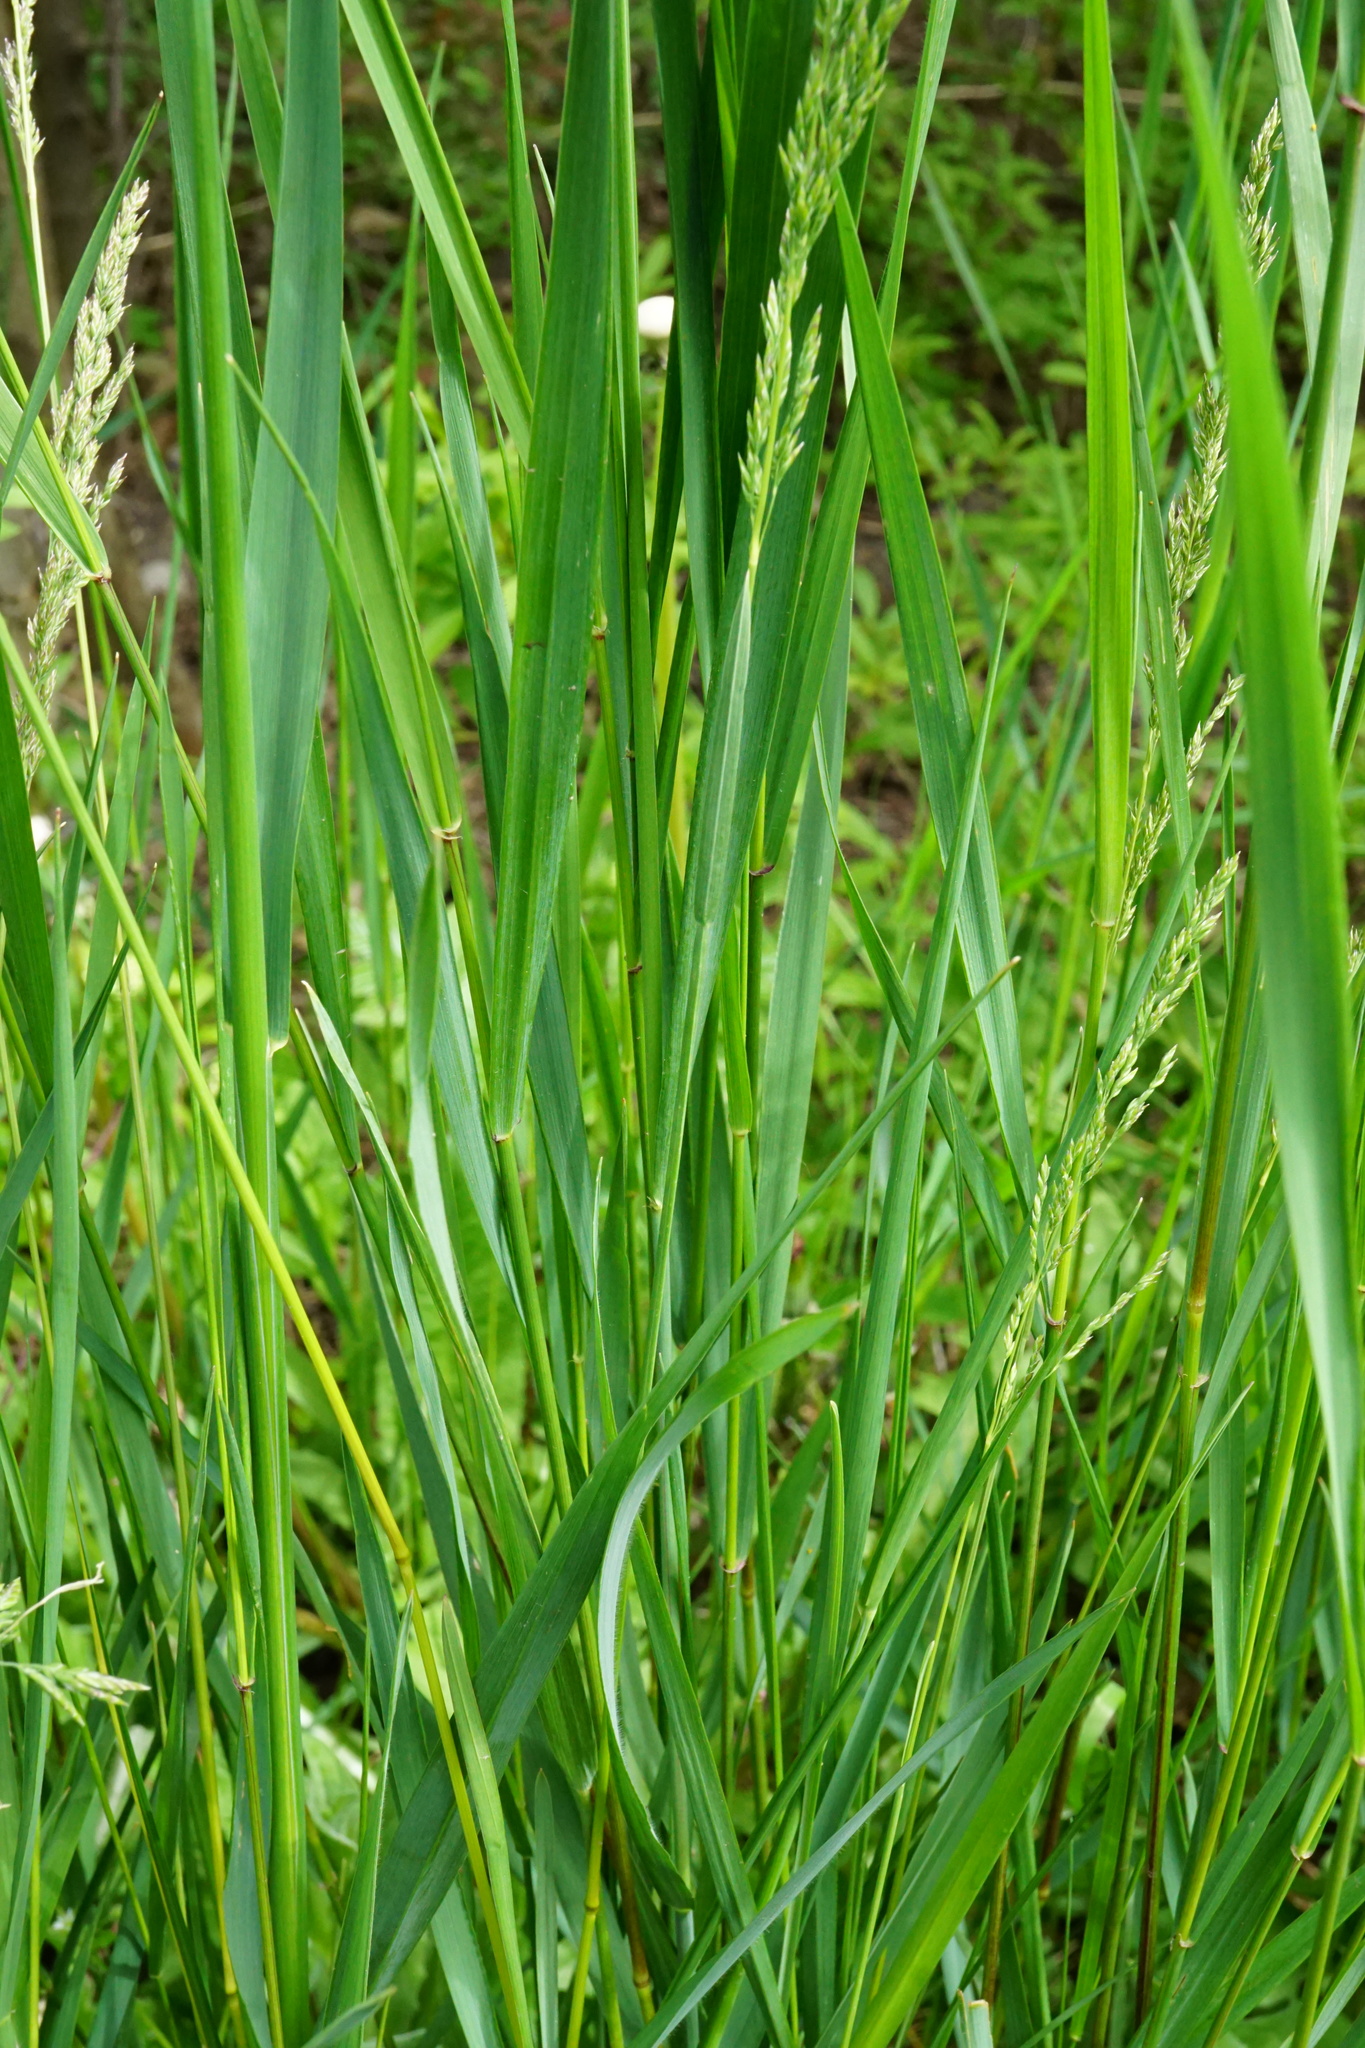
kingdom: Plantae
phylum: Tracheophyta
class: Liliopsida
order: Poales
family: Poaceae
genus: Poa
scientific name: Poa pratensis
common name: Kentucky bluegrass
